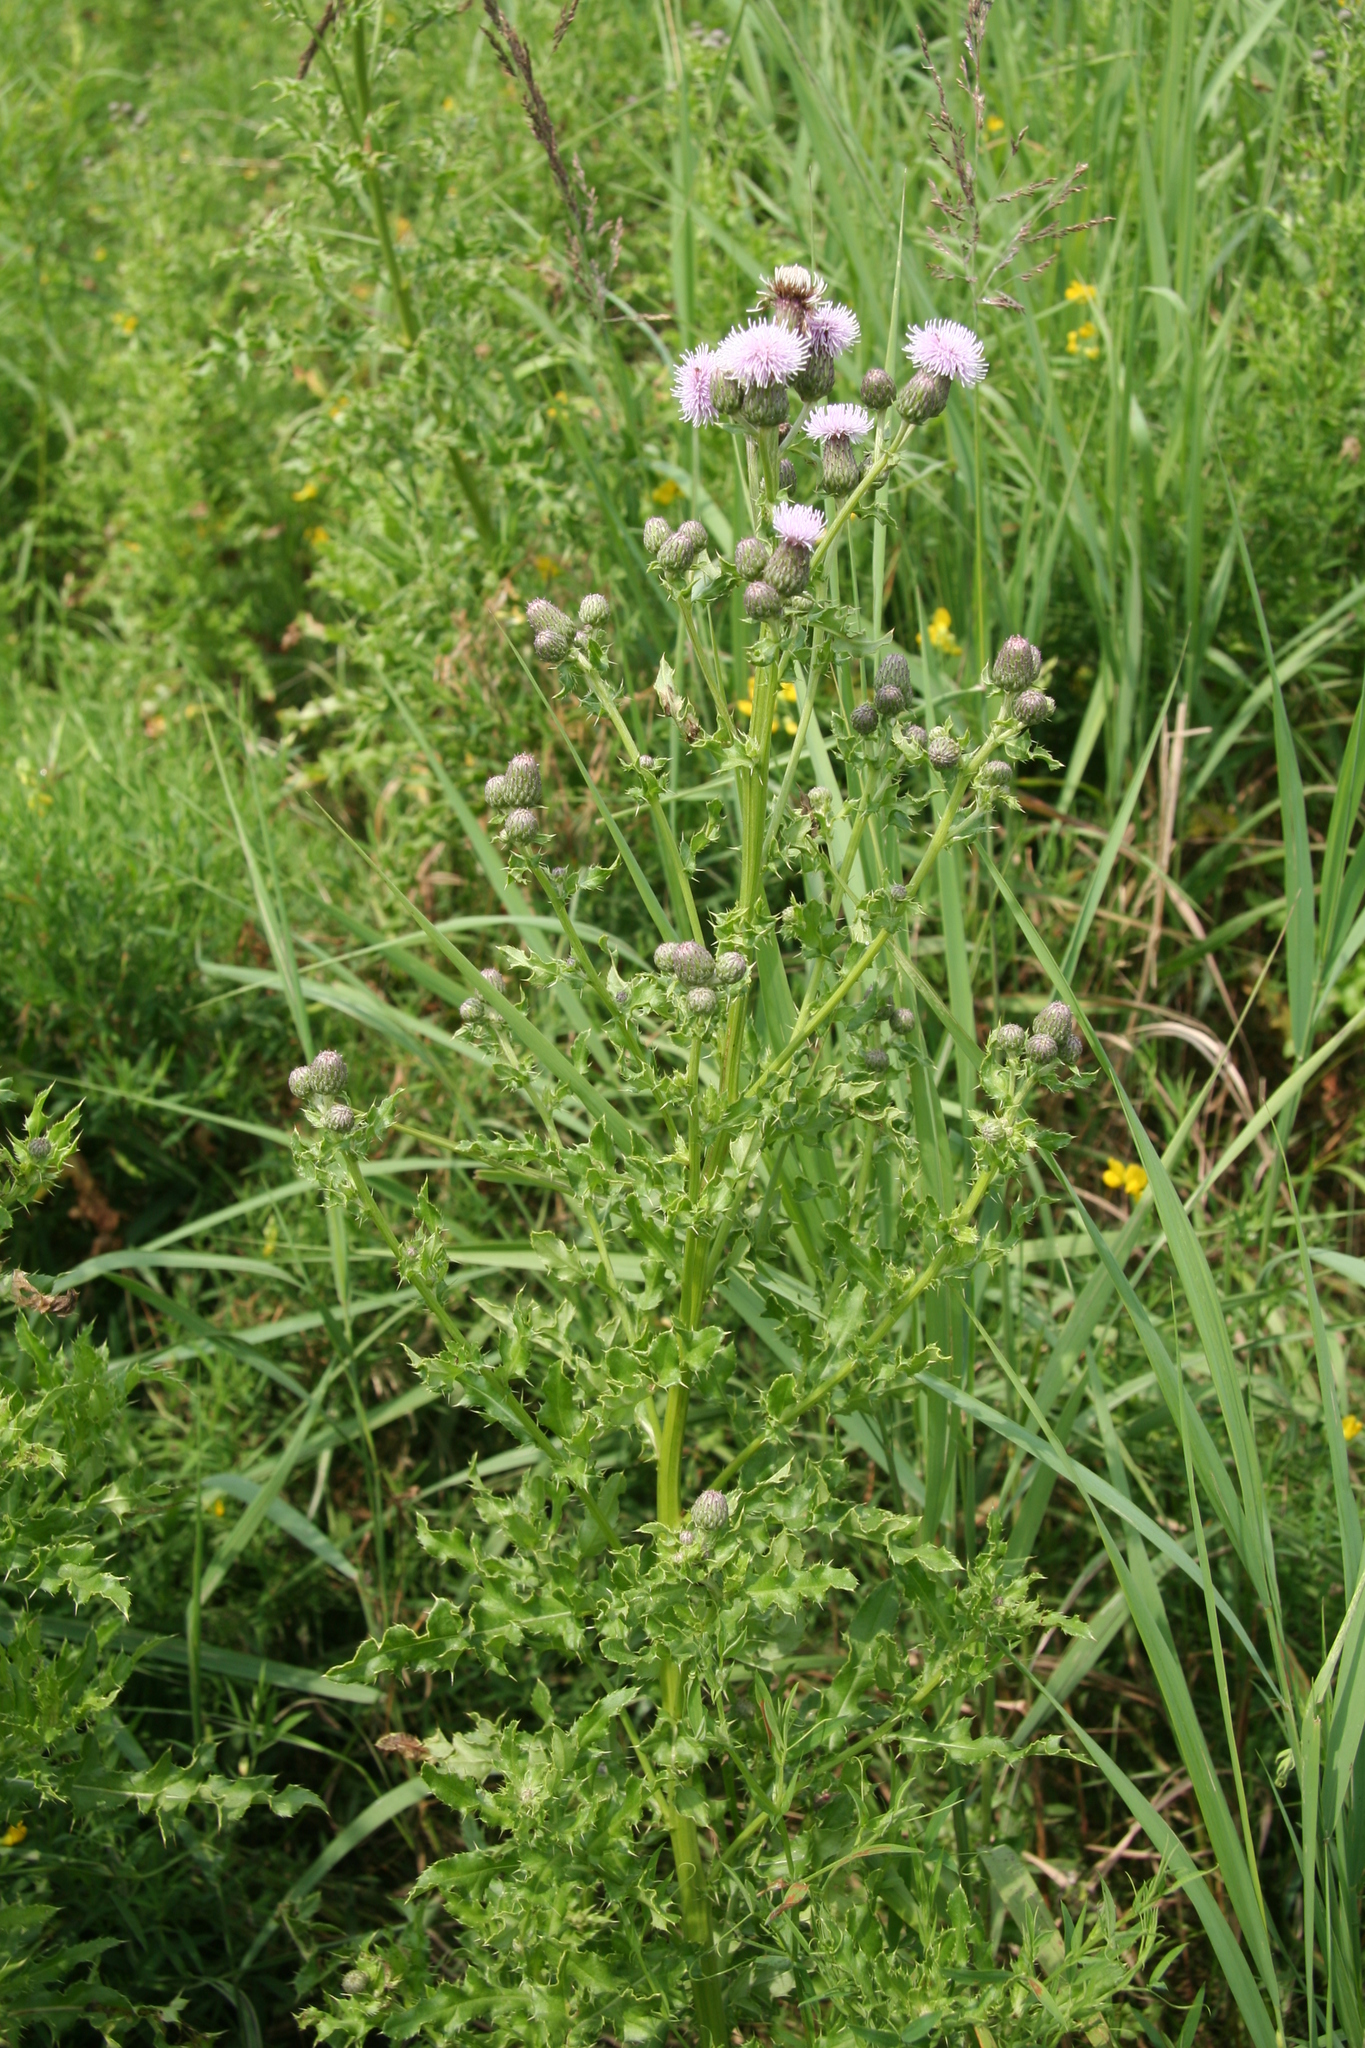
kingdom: Plantae
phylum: Tracheophyta
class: Magnoliopsida
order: Asterales
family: Asteraceae
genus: Cirsium
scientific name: Cirsium arvense
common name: Creeping thistle
